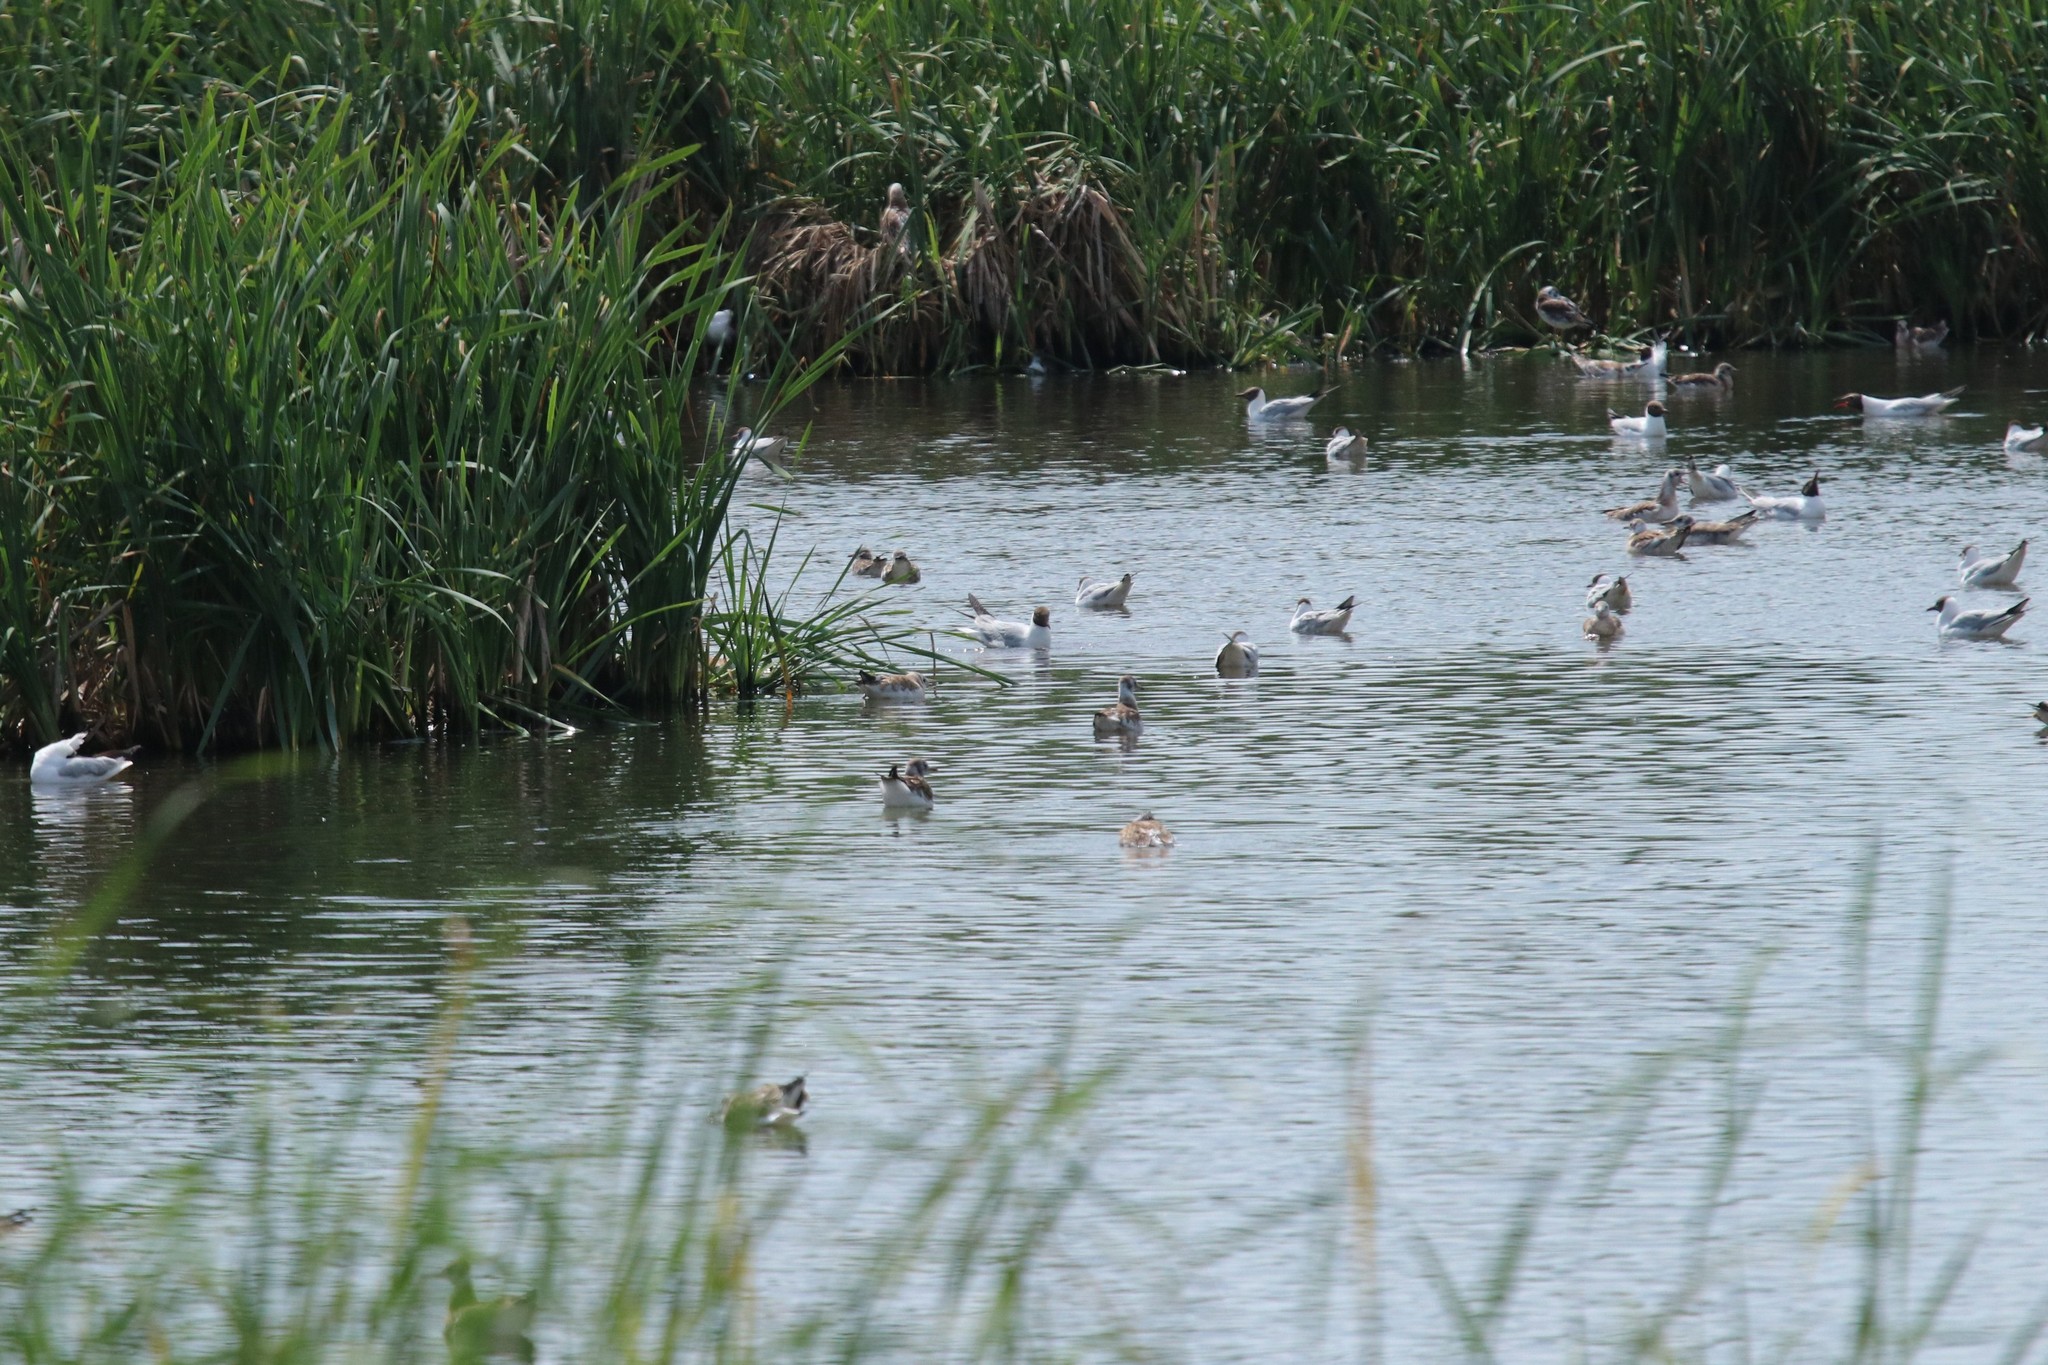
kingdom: Animalia
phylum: Chordata
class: Aves
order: Charadriiformes
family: Laridae
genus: Chroicocephalus
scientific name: Chroicocephalus ridibundus
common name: Black-headed gull
